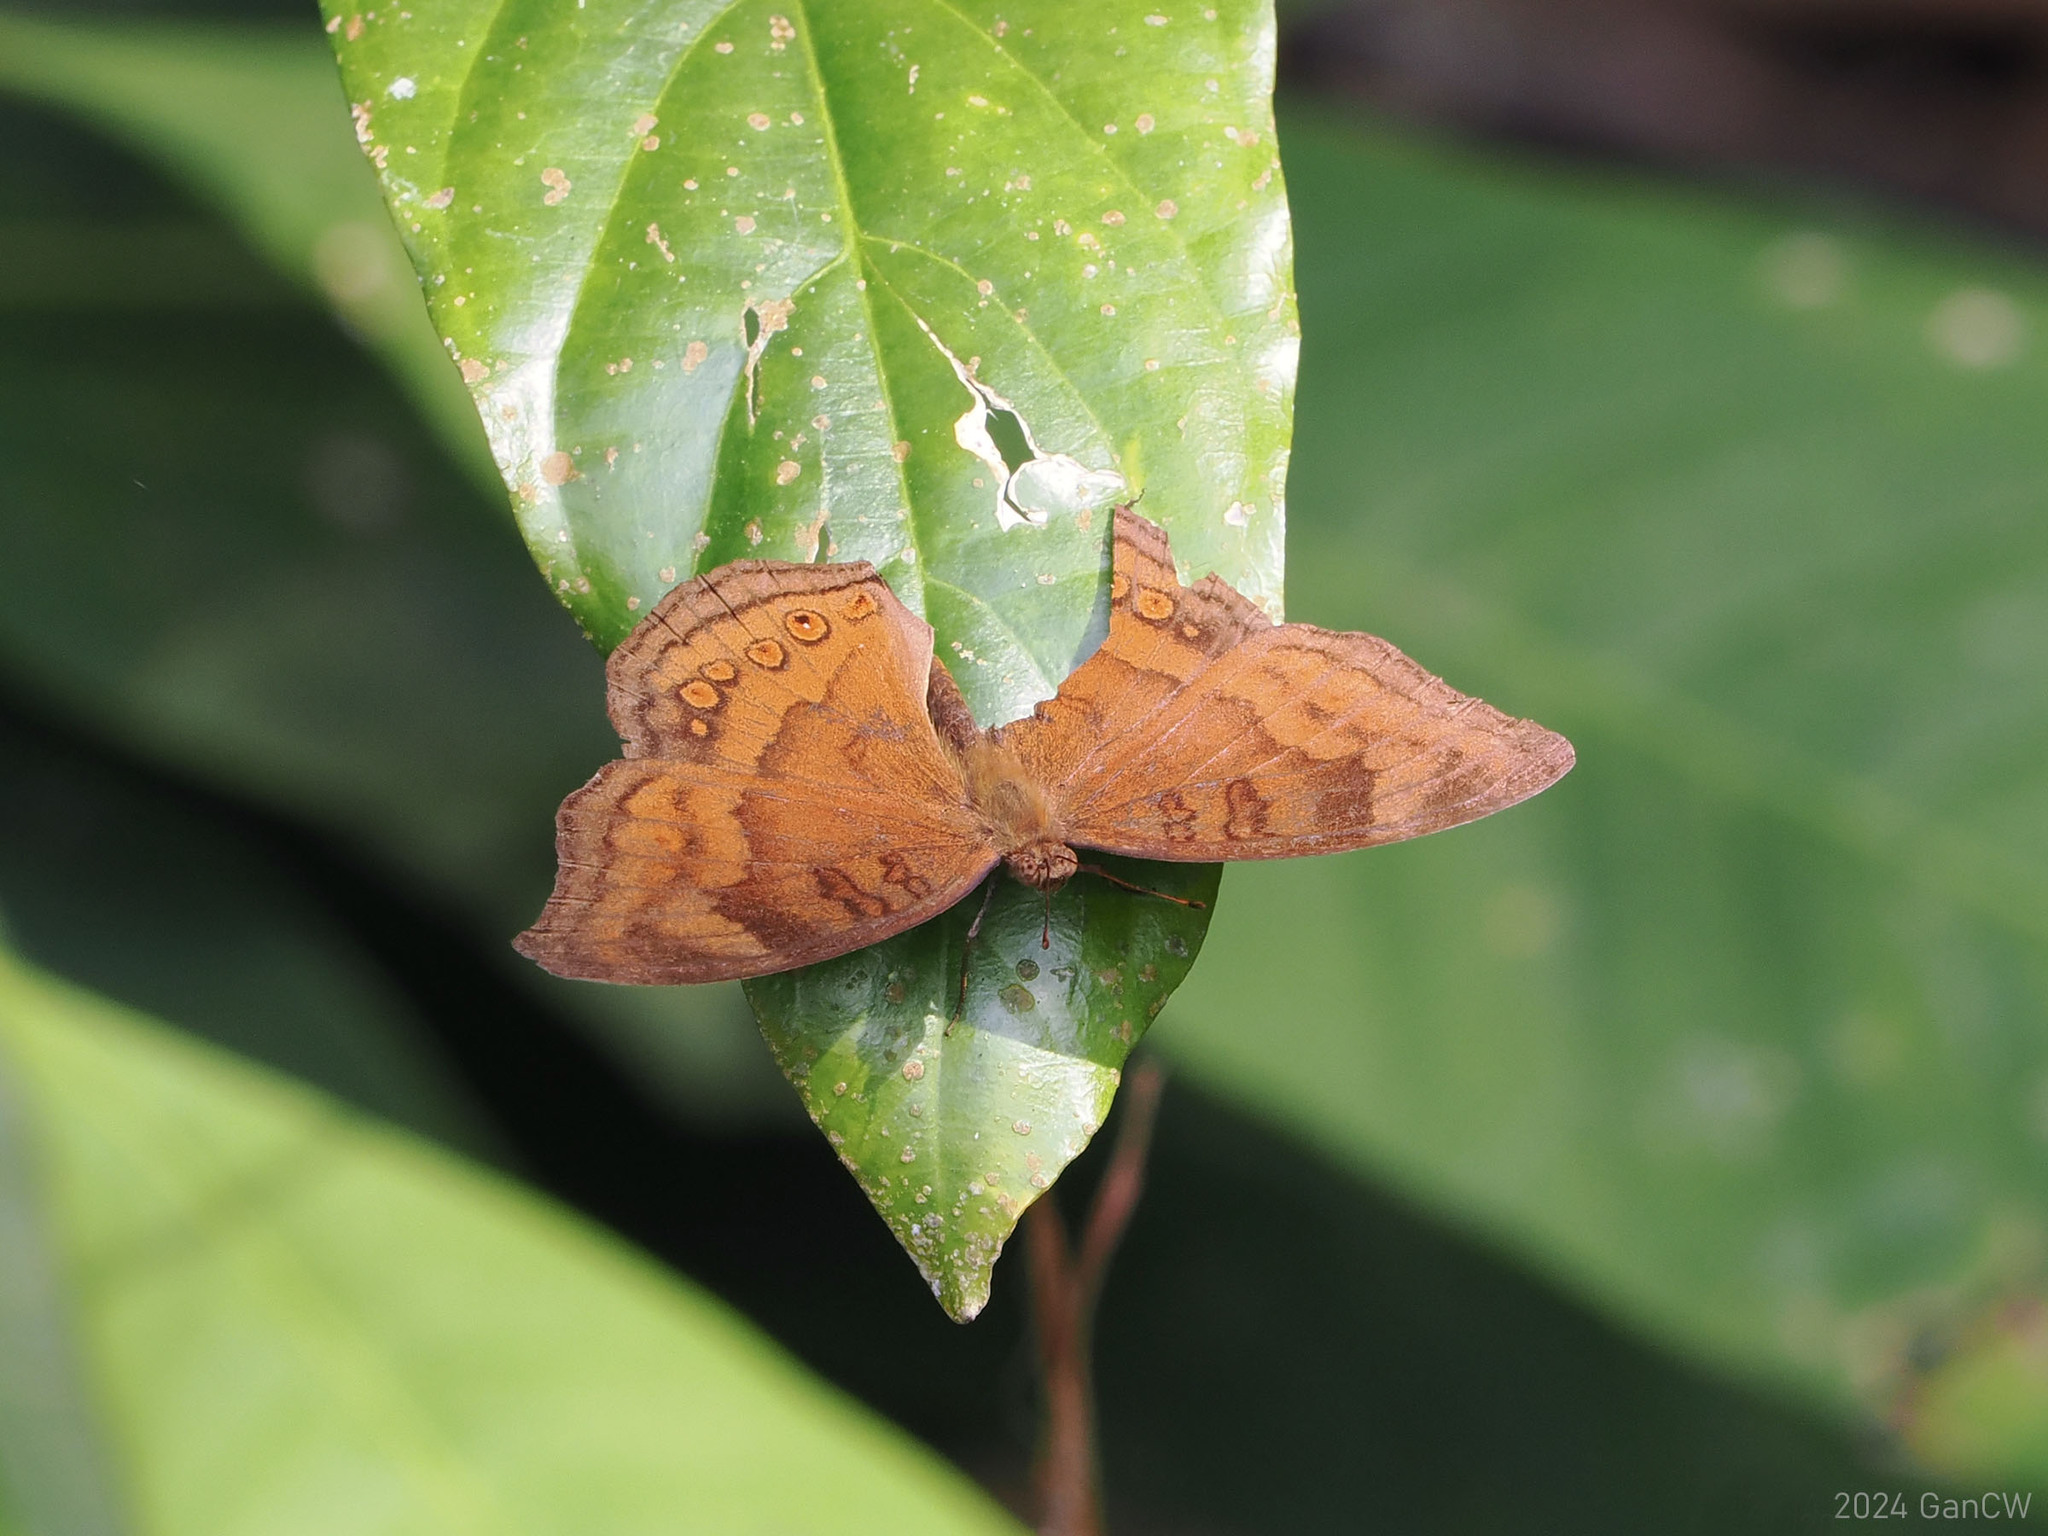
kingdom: Animalia
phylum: Arthropoda
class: Insecta
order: Lepidoptera
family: Nymphalidae
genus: Junonia
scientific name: Junonia hedonia
